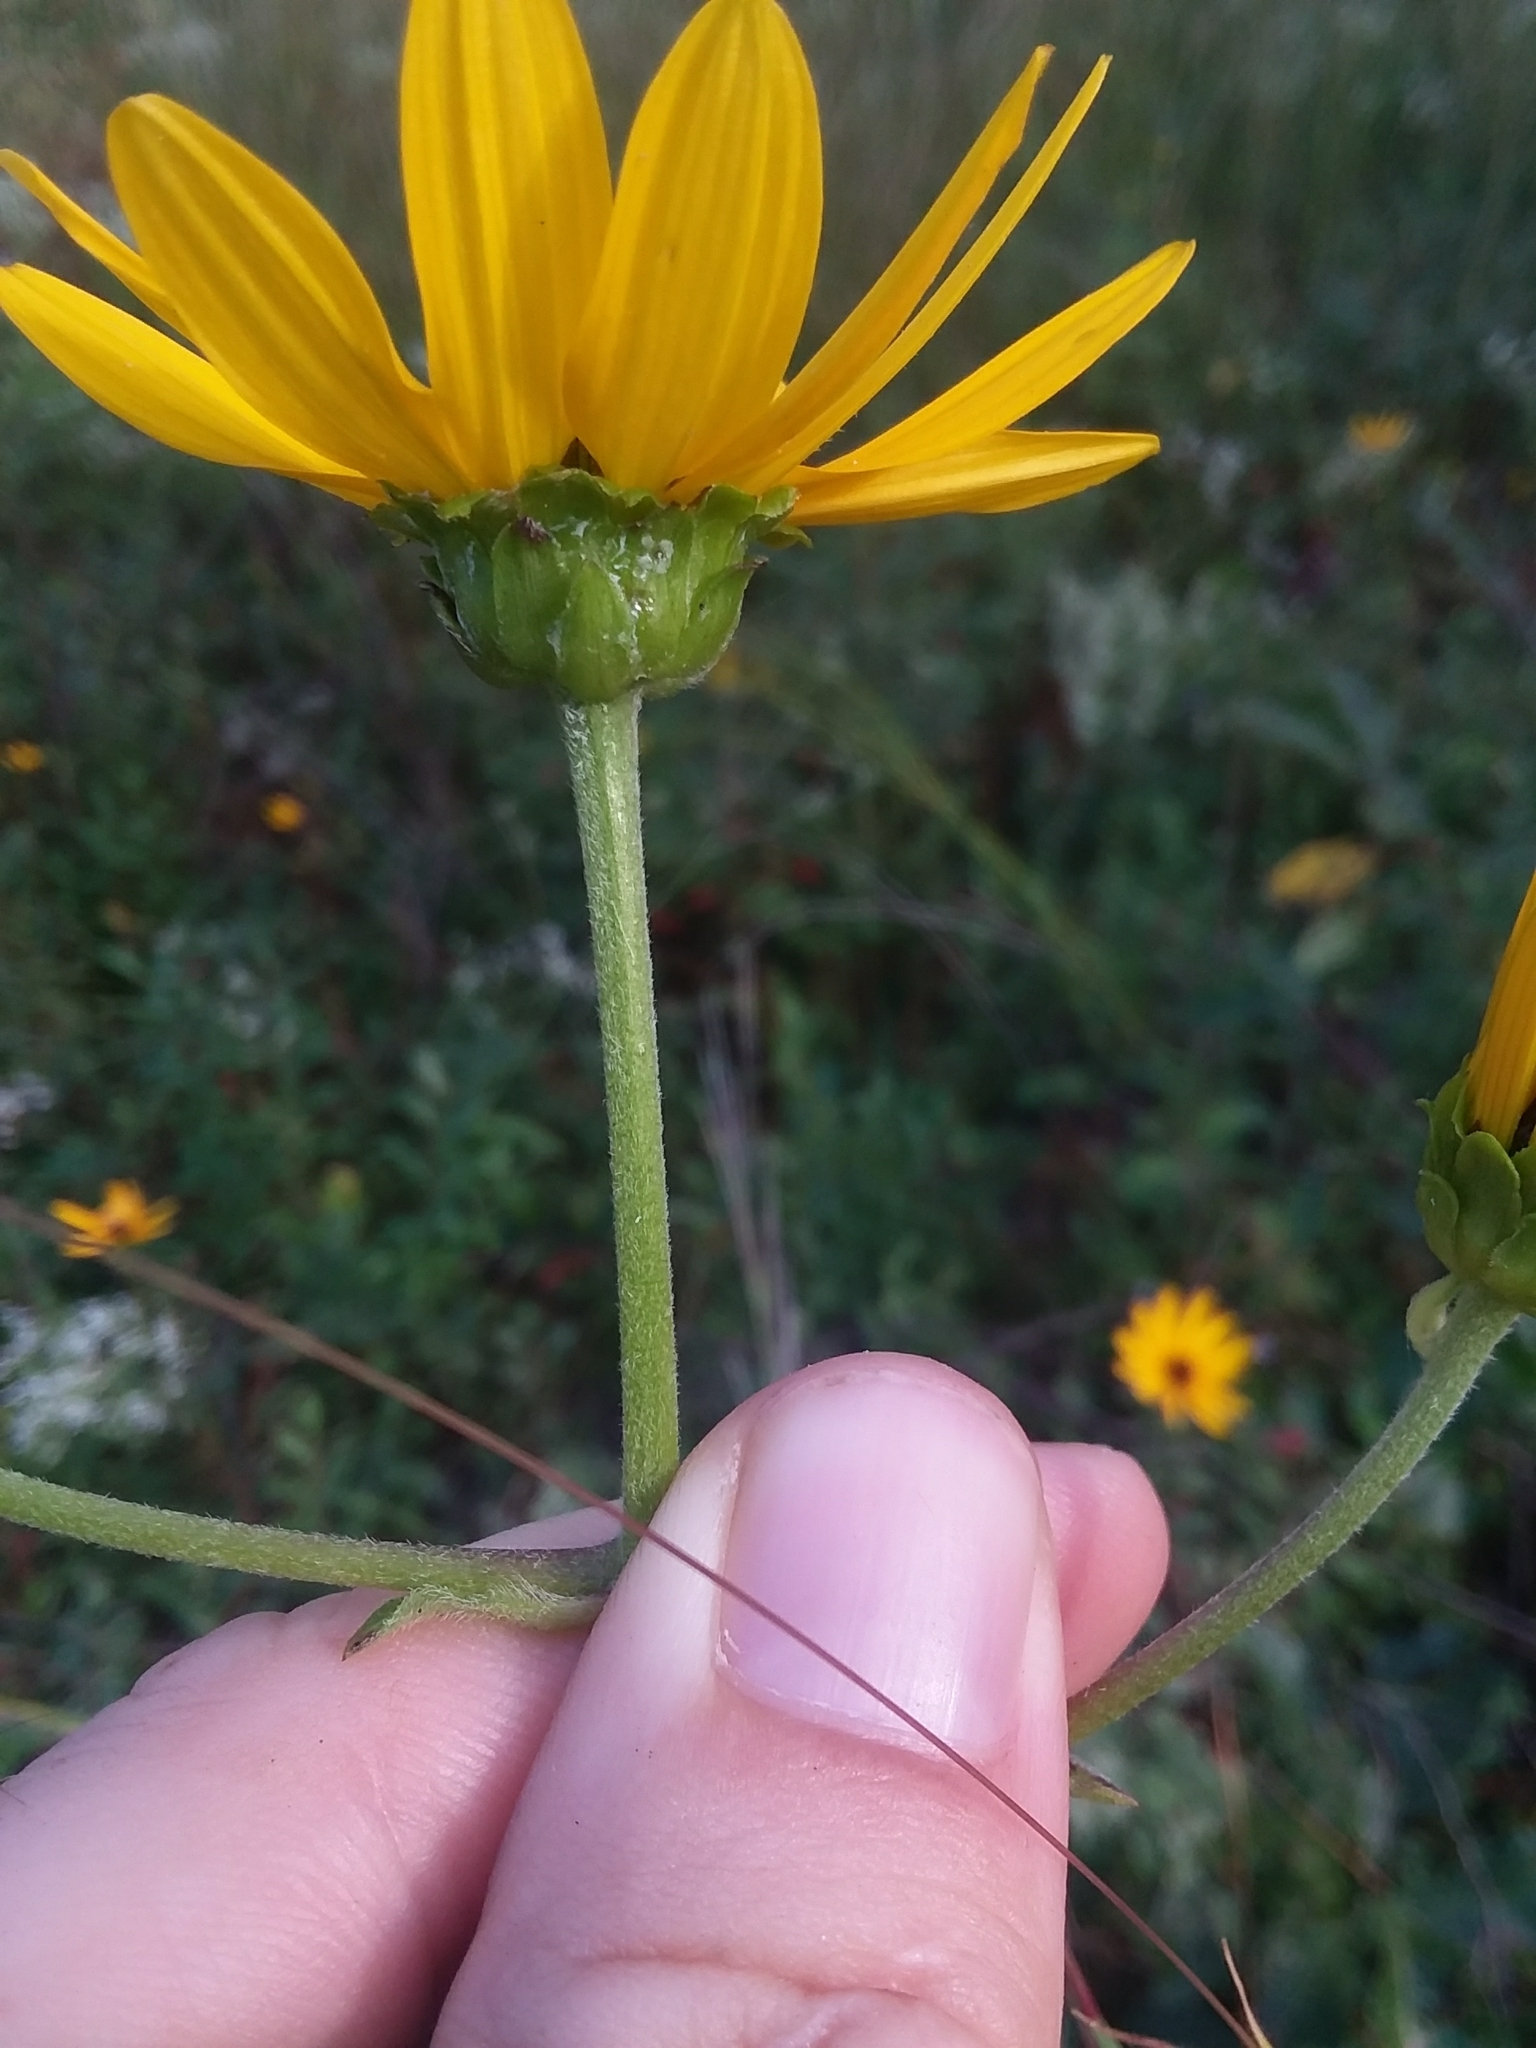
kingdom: Plantae
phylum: Tracheophyta
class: Magnoliopsida
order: Asterales
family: Asteraceae
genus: Helianthus
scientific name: Helianthus atrorubens
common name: Dark-eyed sunflower
